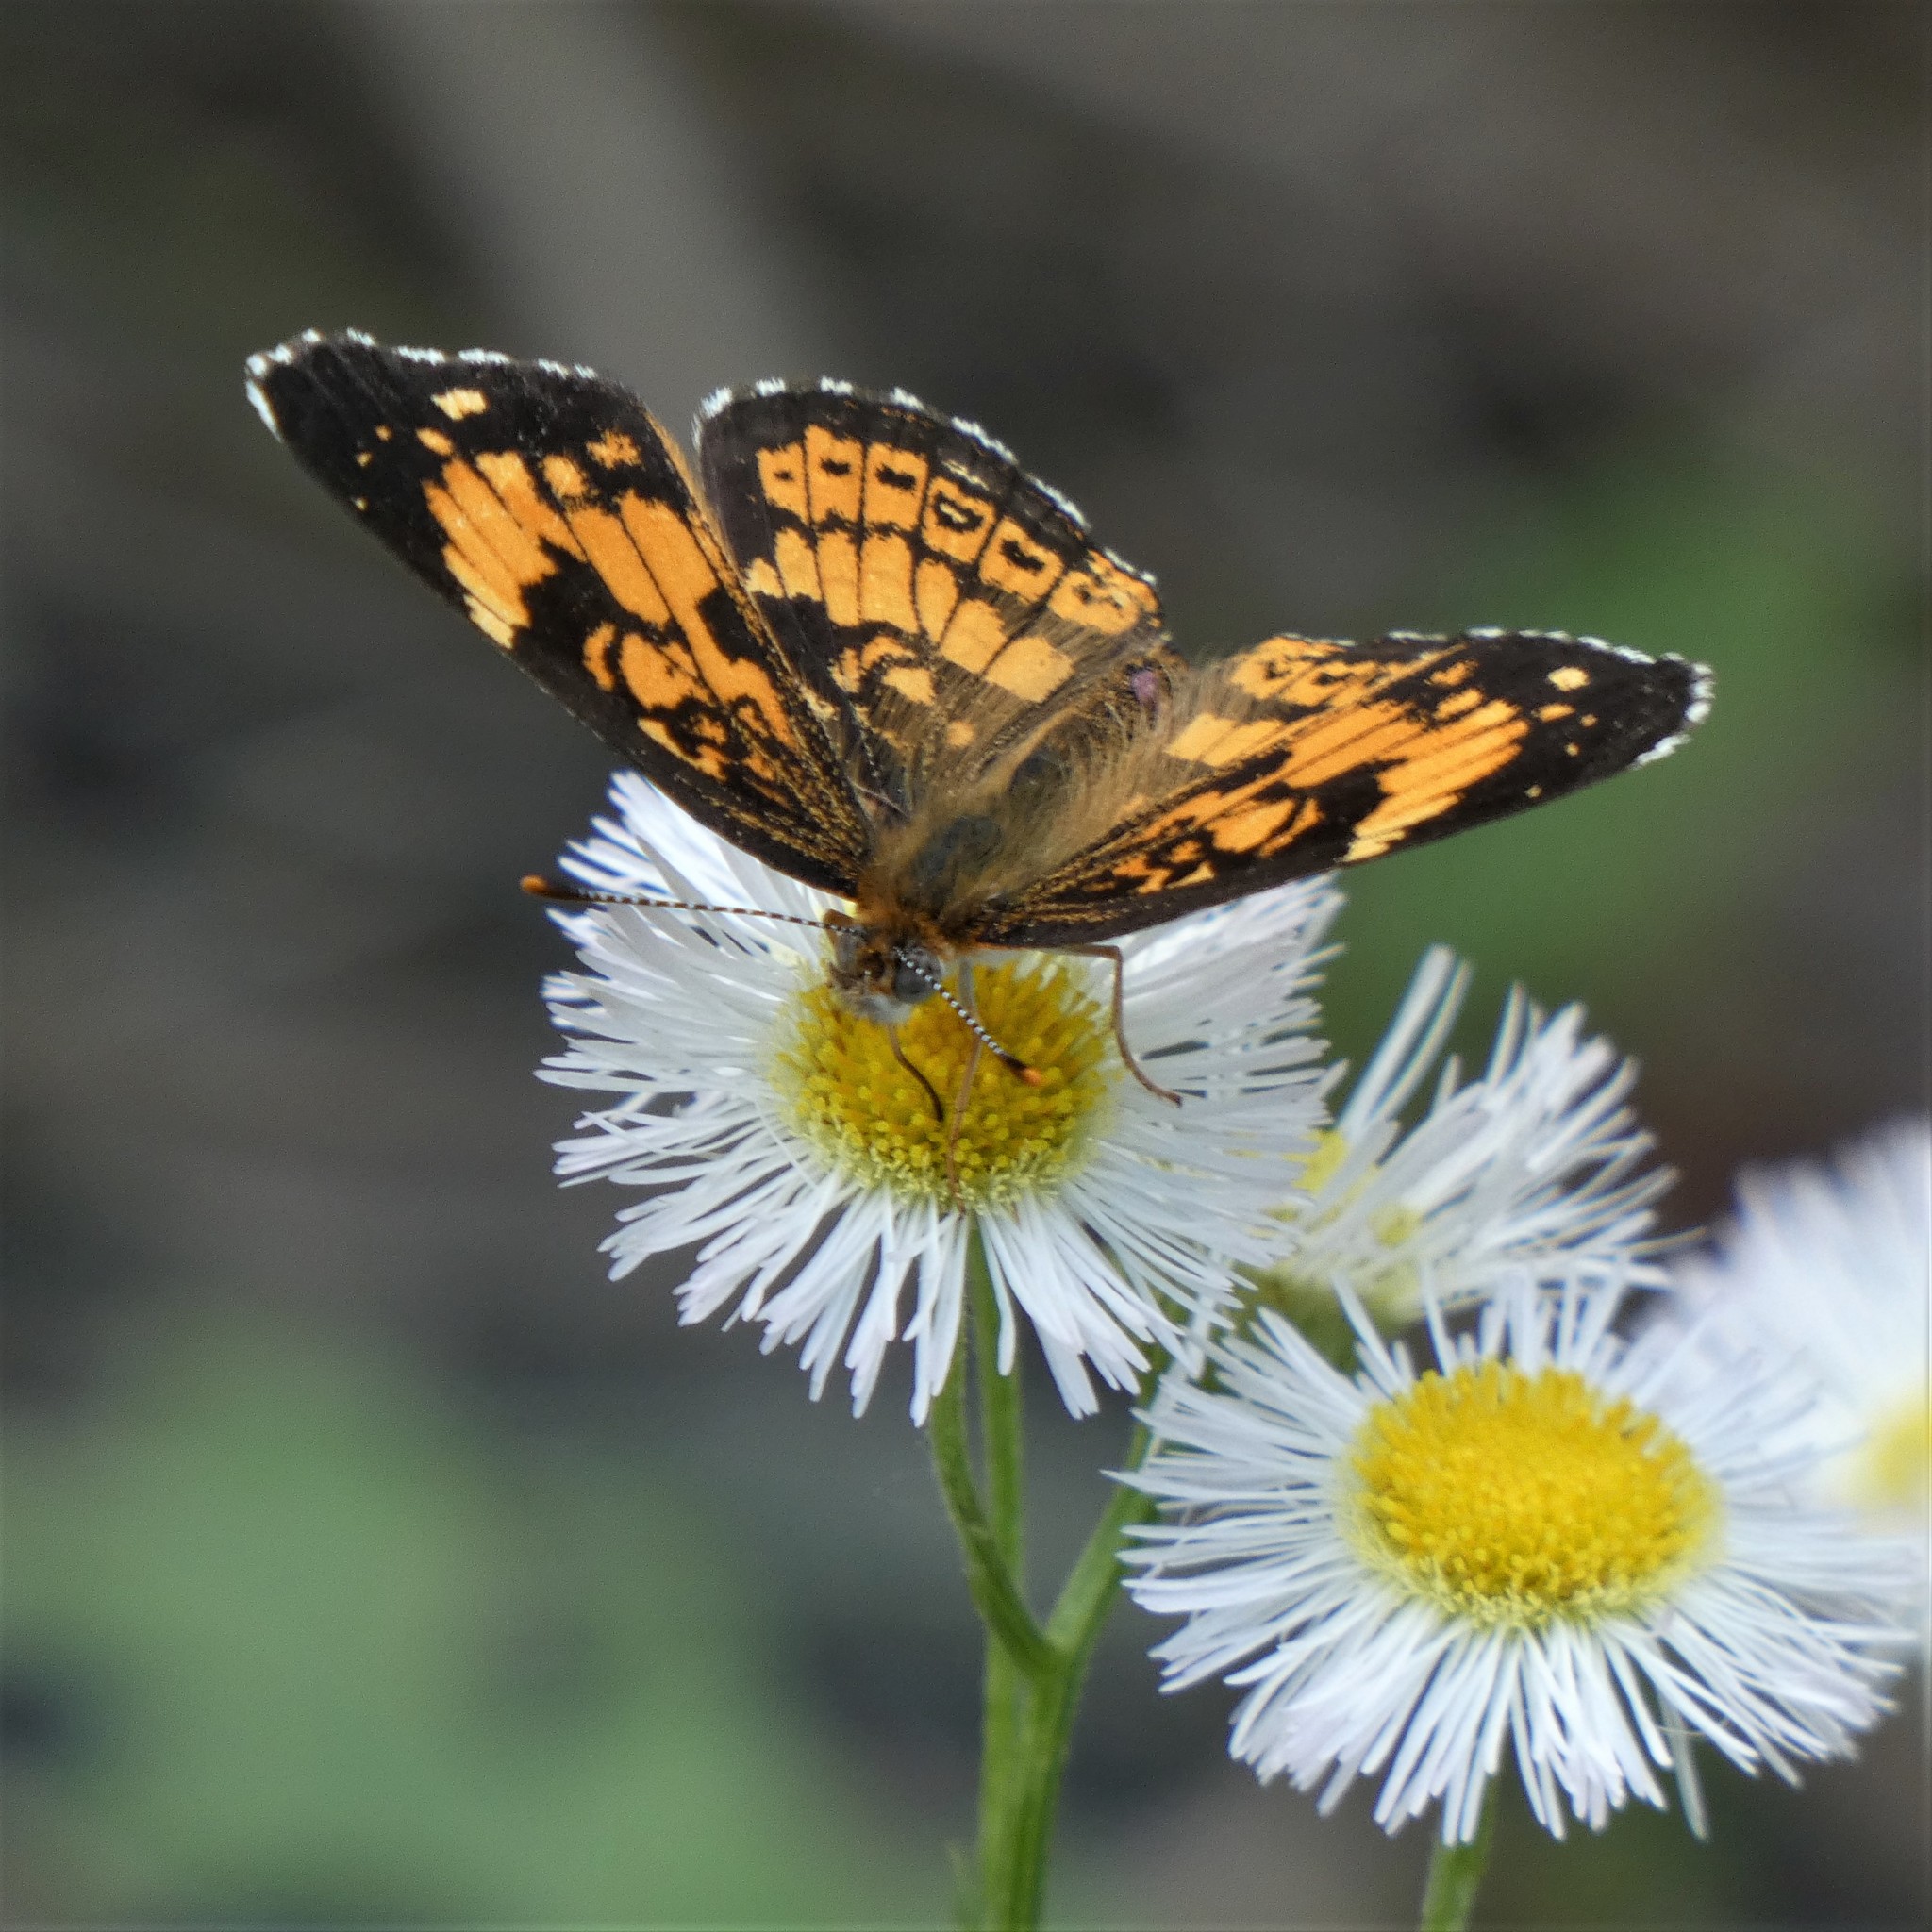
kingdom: Animalia
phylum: Arthropoda
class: Insecta
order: Lepidoptera
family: Nymphalidae
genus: Chlosyne
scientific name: Chlosyne nycteis
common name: Silvery checkerspot
